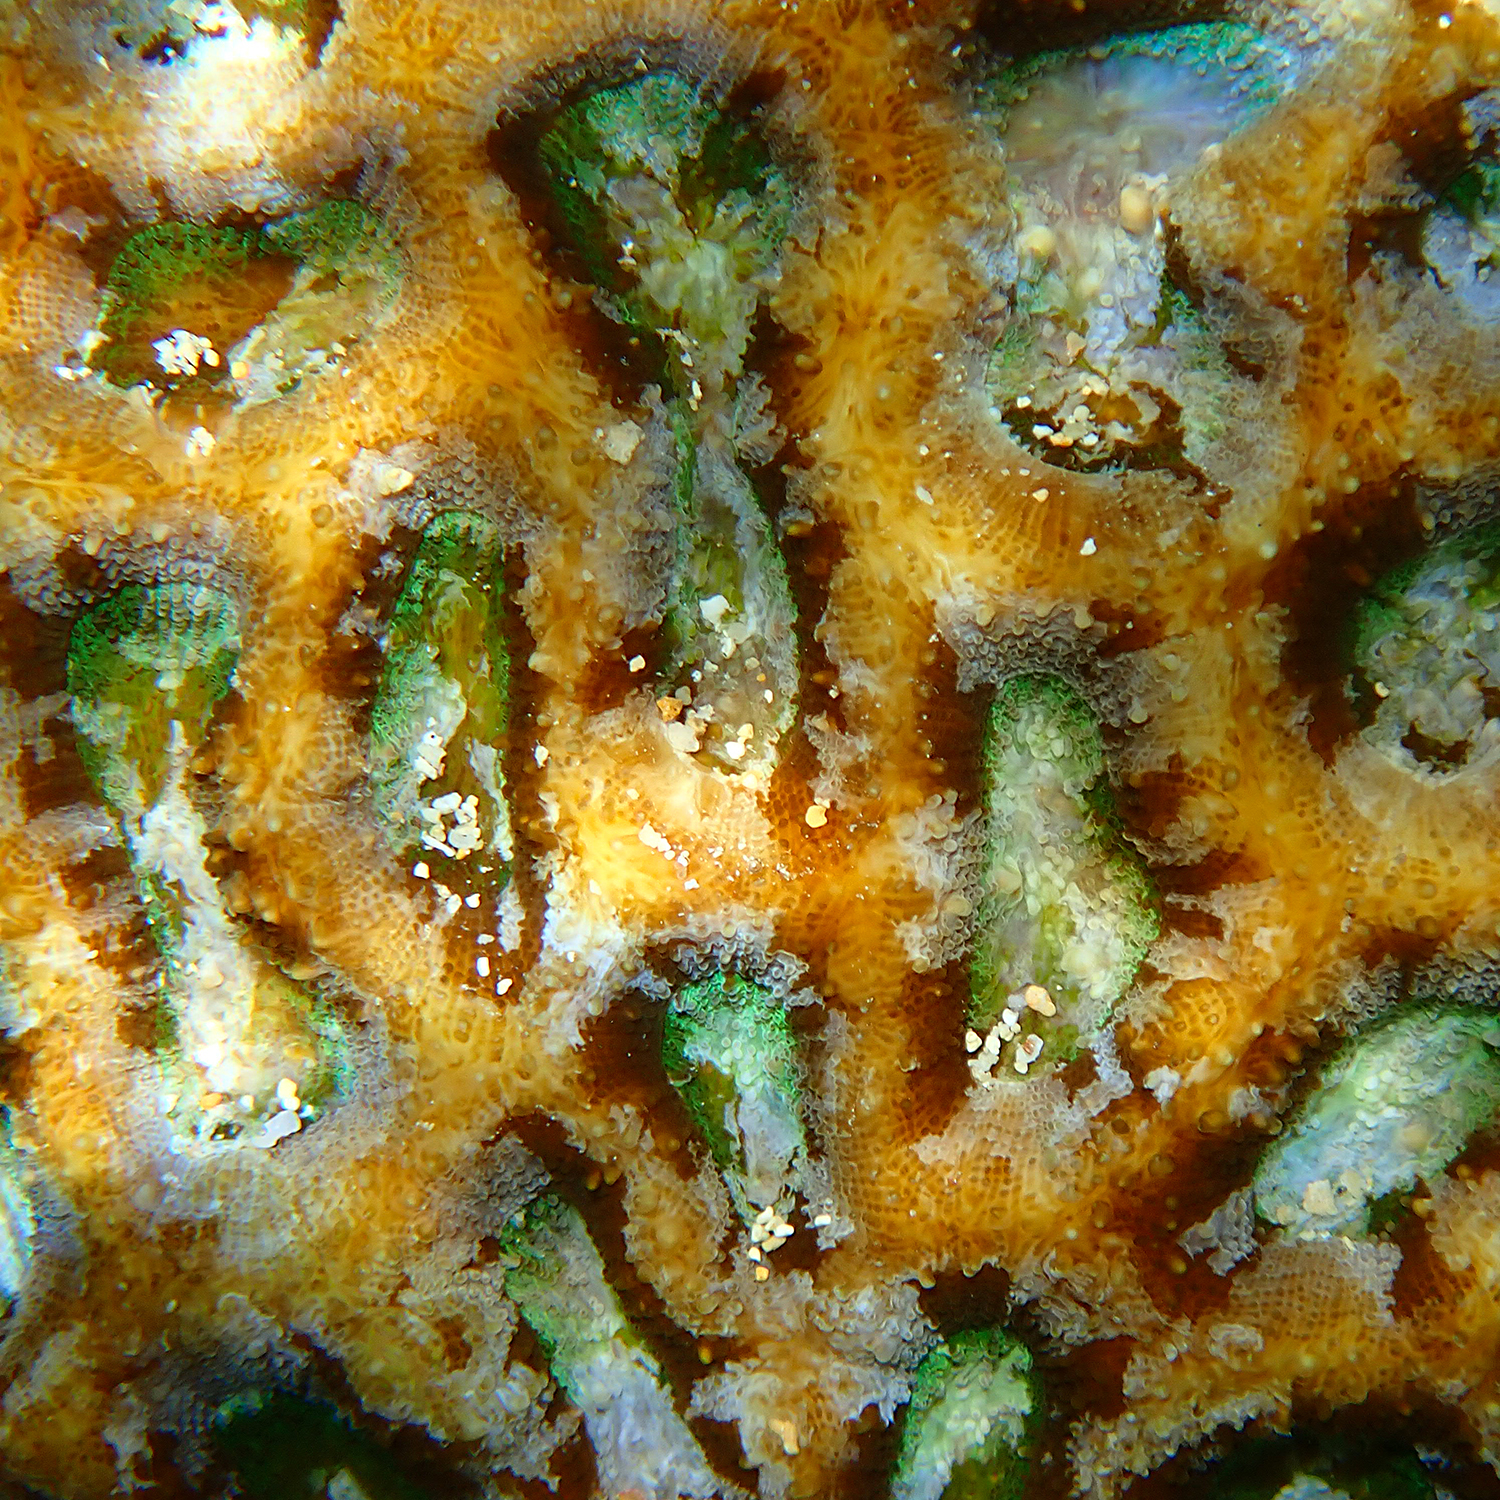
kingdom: Animalia
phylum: Cnidaria
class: Anthozoa
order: Scleractinia
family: Lobophylliidae
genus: Homophyllia
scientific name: Homophyllia bowerbanki
